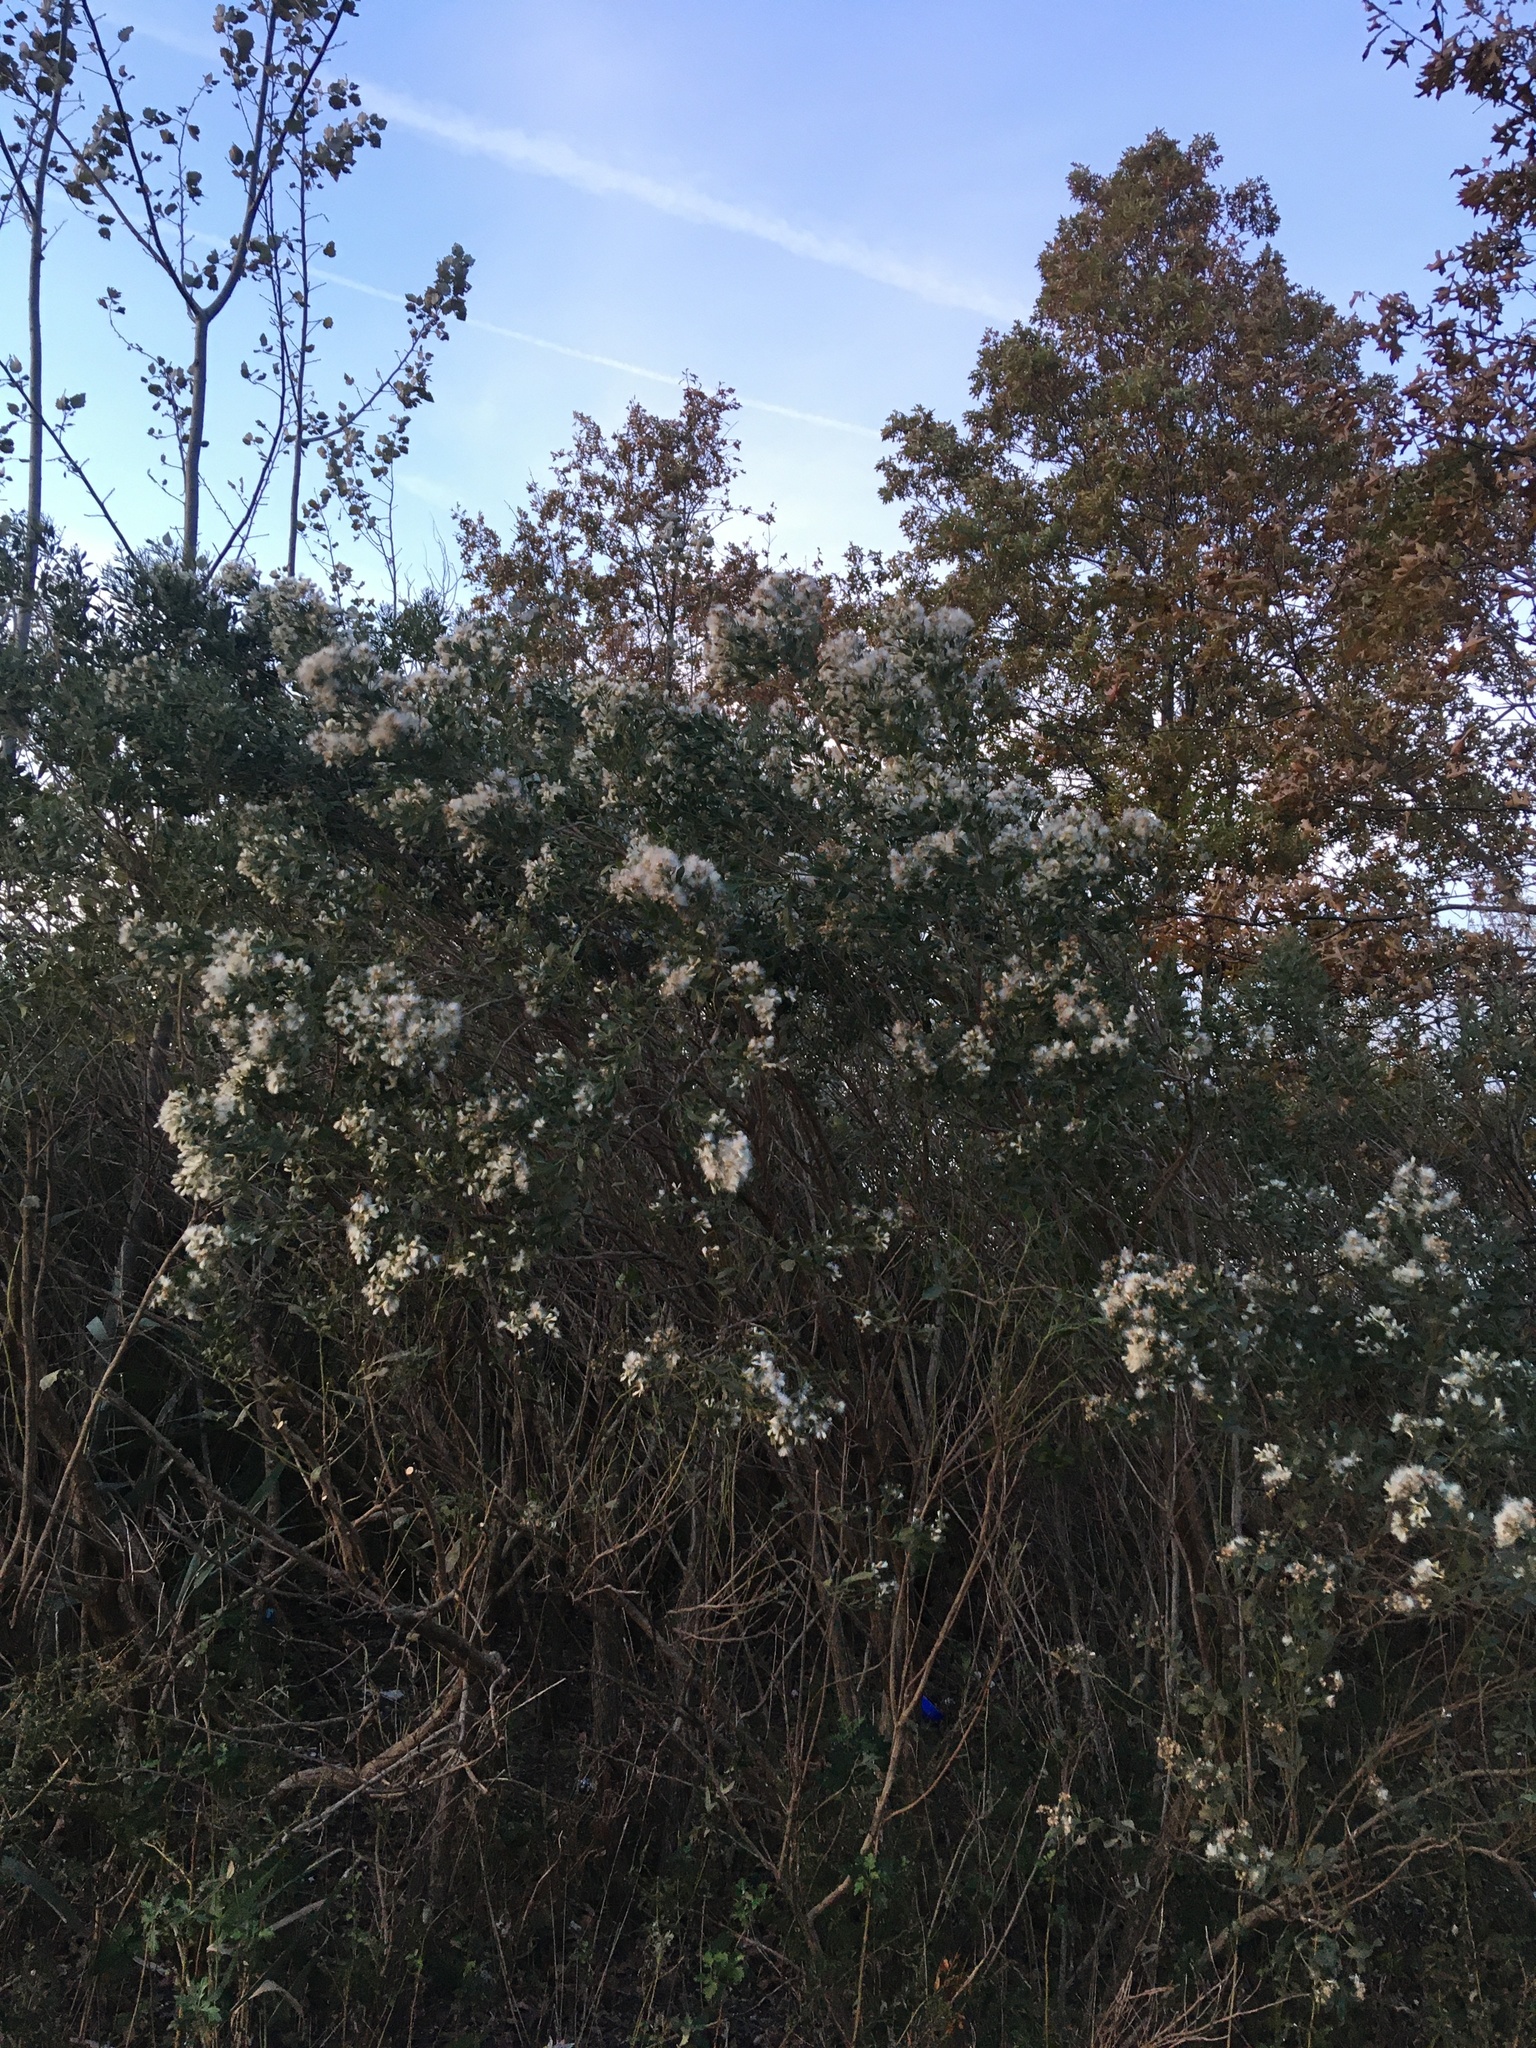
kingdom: Plantae
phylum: Tracheophyta
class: Magnoliopsida
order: Asterales
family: Asteraceae
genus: Baccharis
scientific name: Baccharis halimifolia
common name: Eastern baccharis
